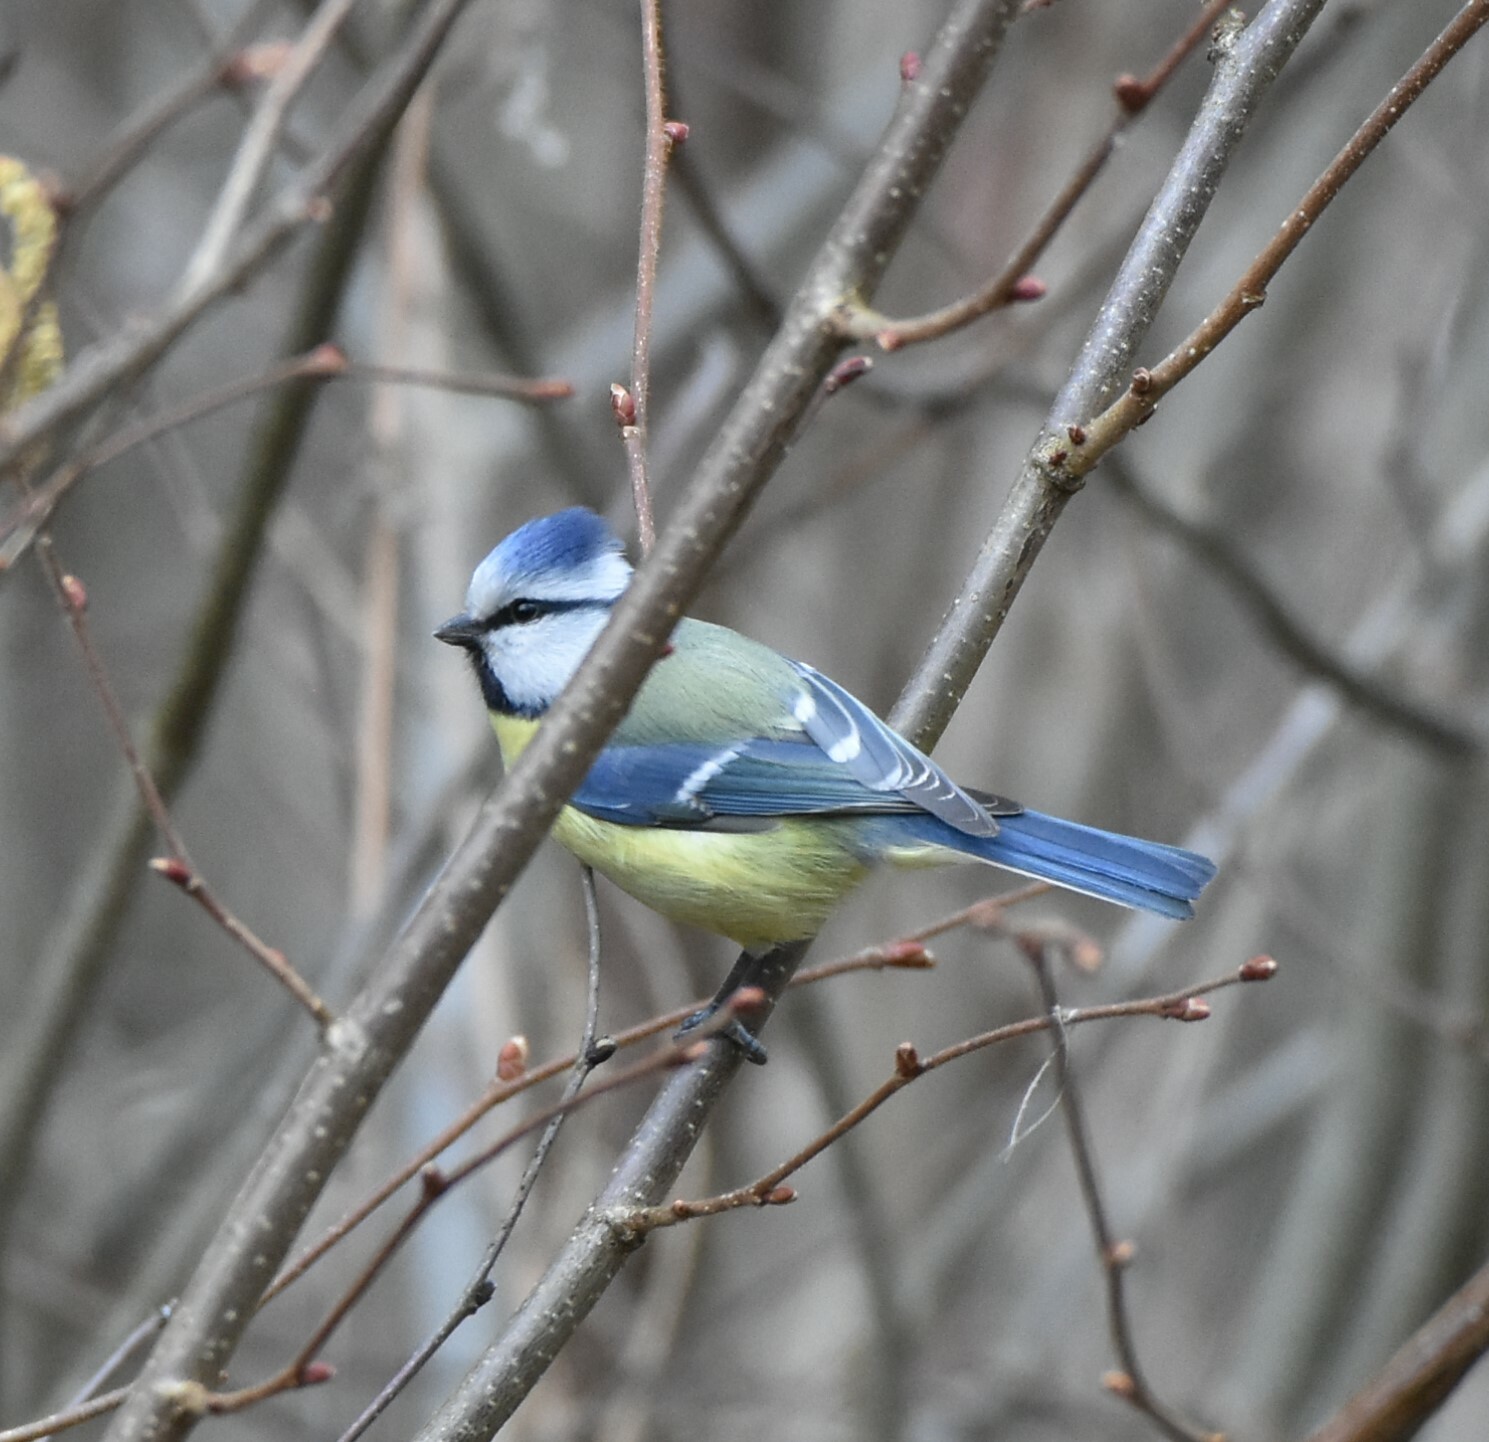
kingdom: Animalia
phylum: Chordata
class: Aves
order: Passeriformes
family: Paridae
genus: Cyanistes
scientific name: Cyanistes caeruleus
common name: Eurasian blue tit
